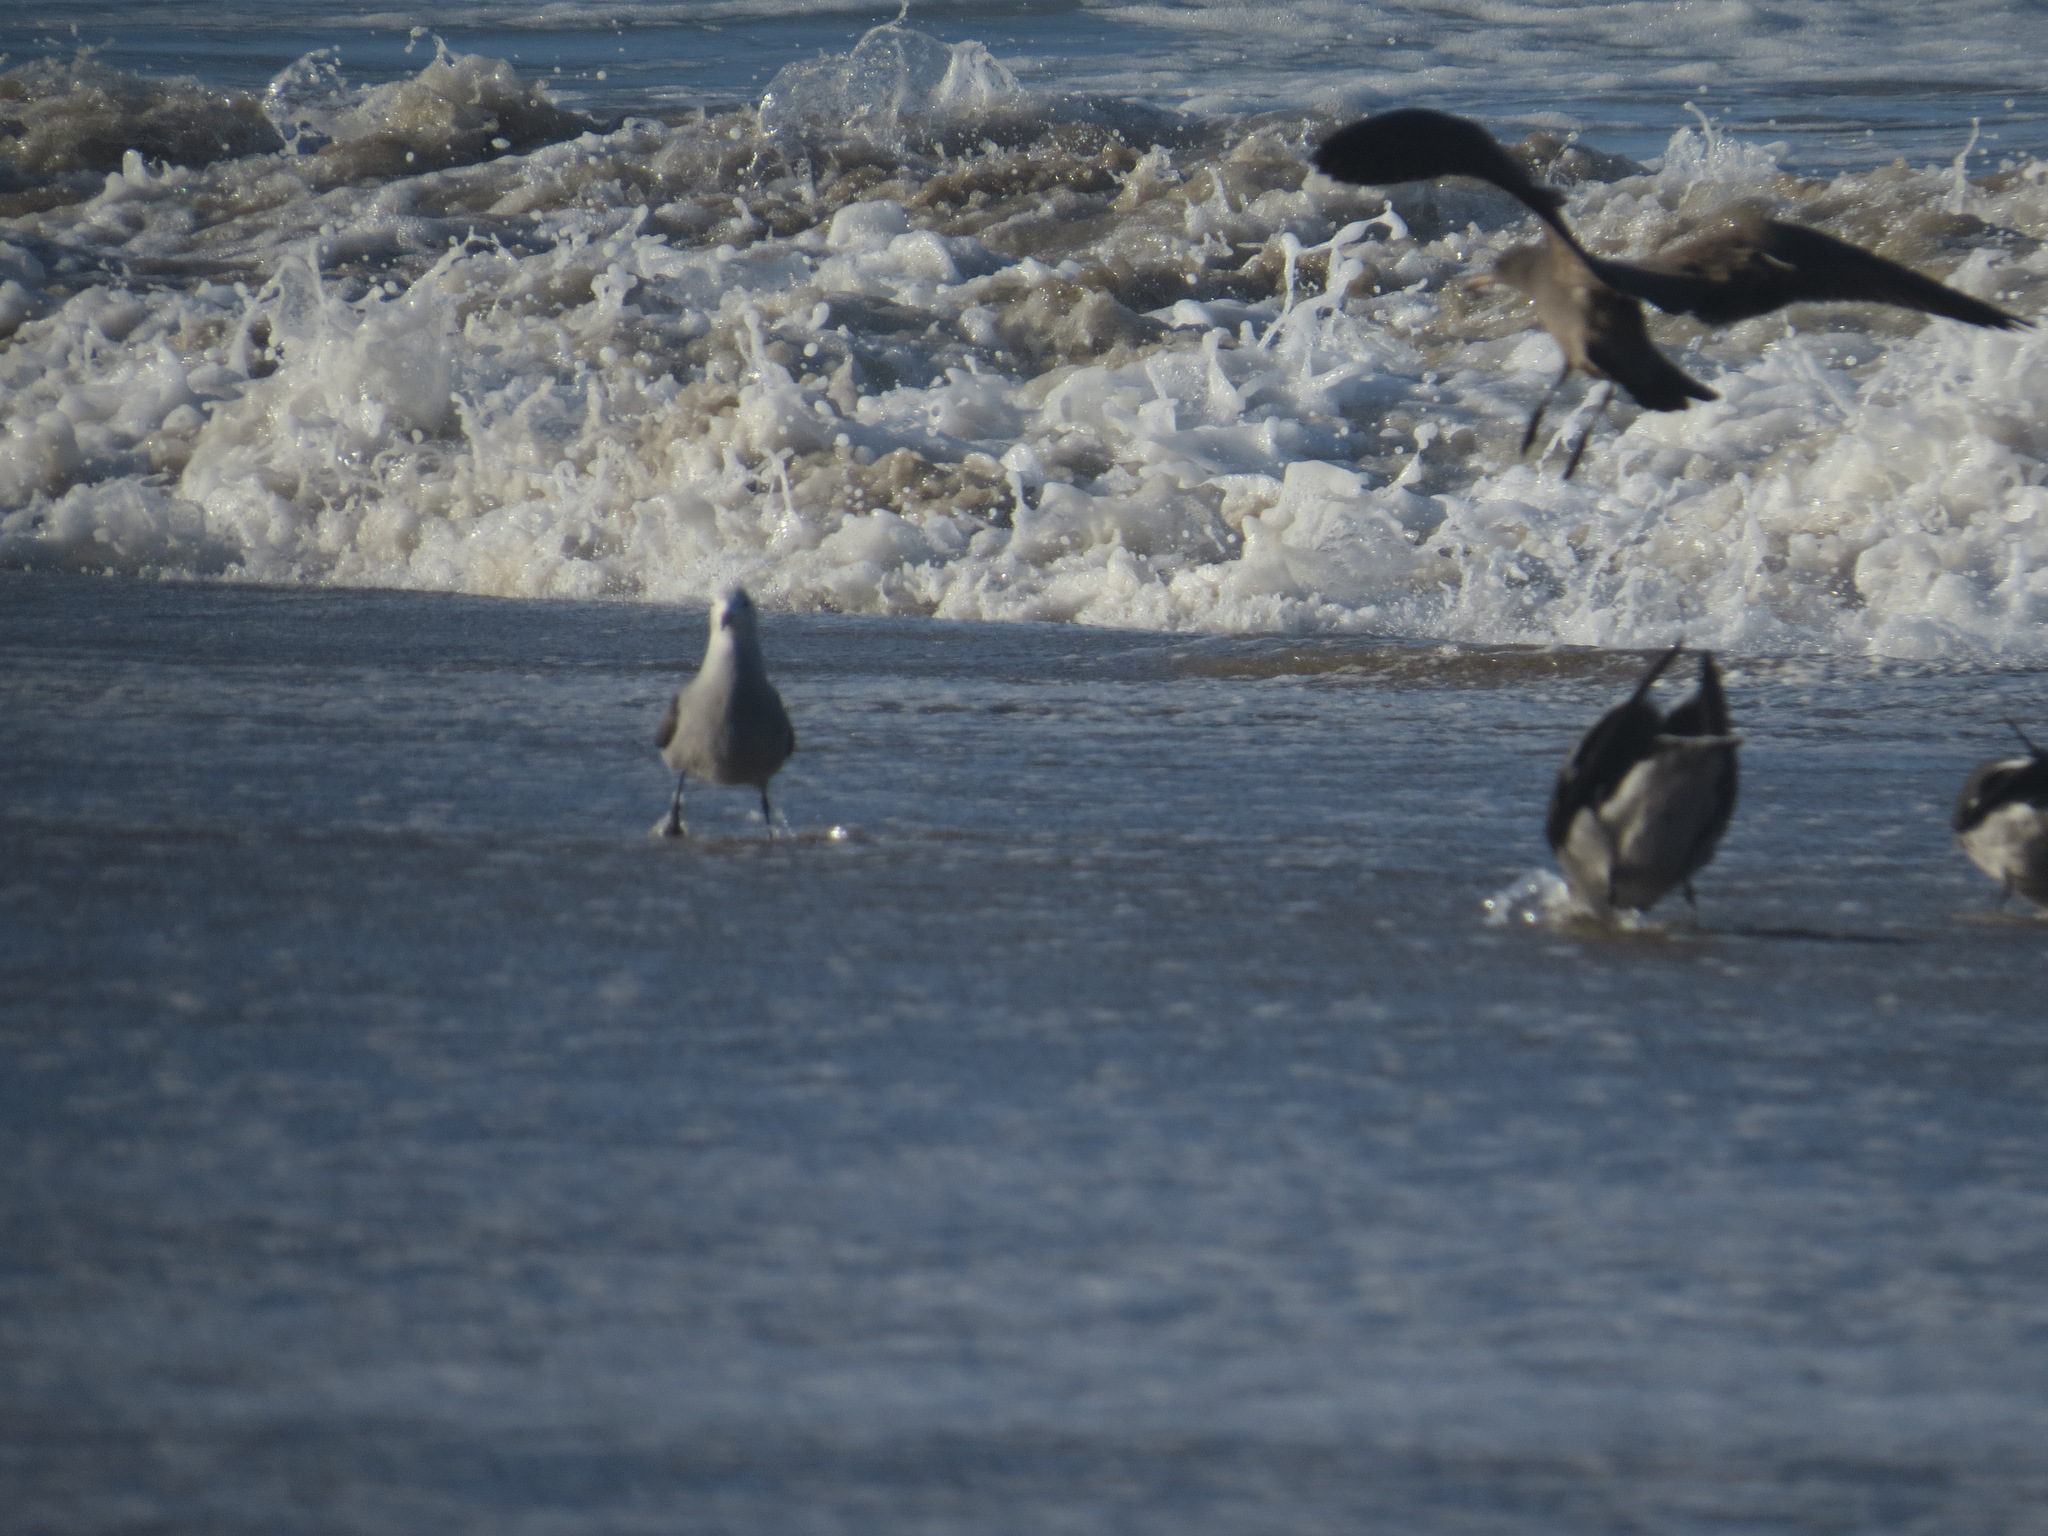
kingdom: Animalia
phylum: Chordata
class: Aves
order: Charadriiformes
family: Laridae
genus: Larus
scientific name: Larus heermanni
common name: Heermann's gull
